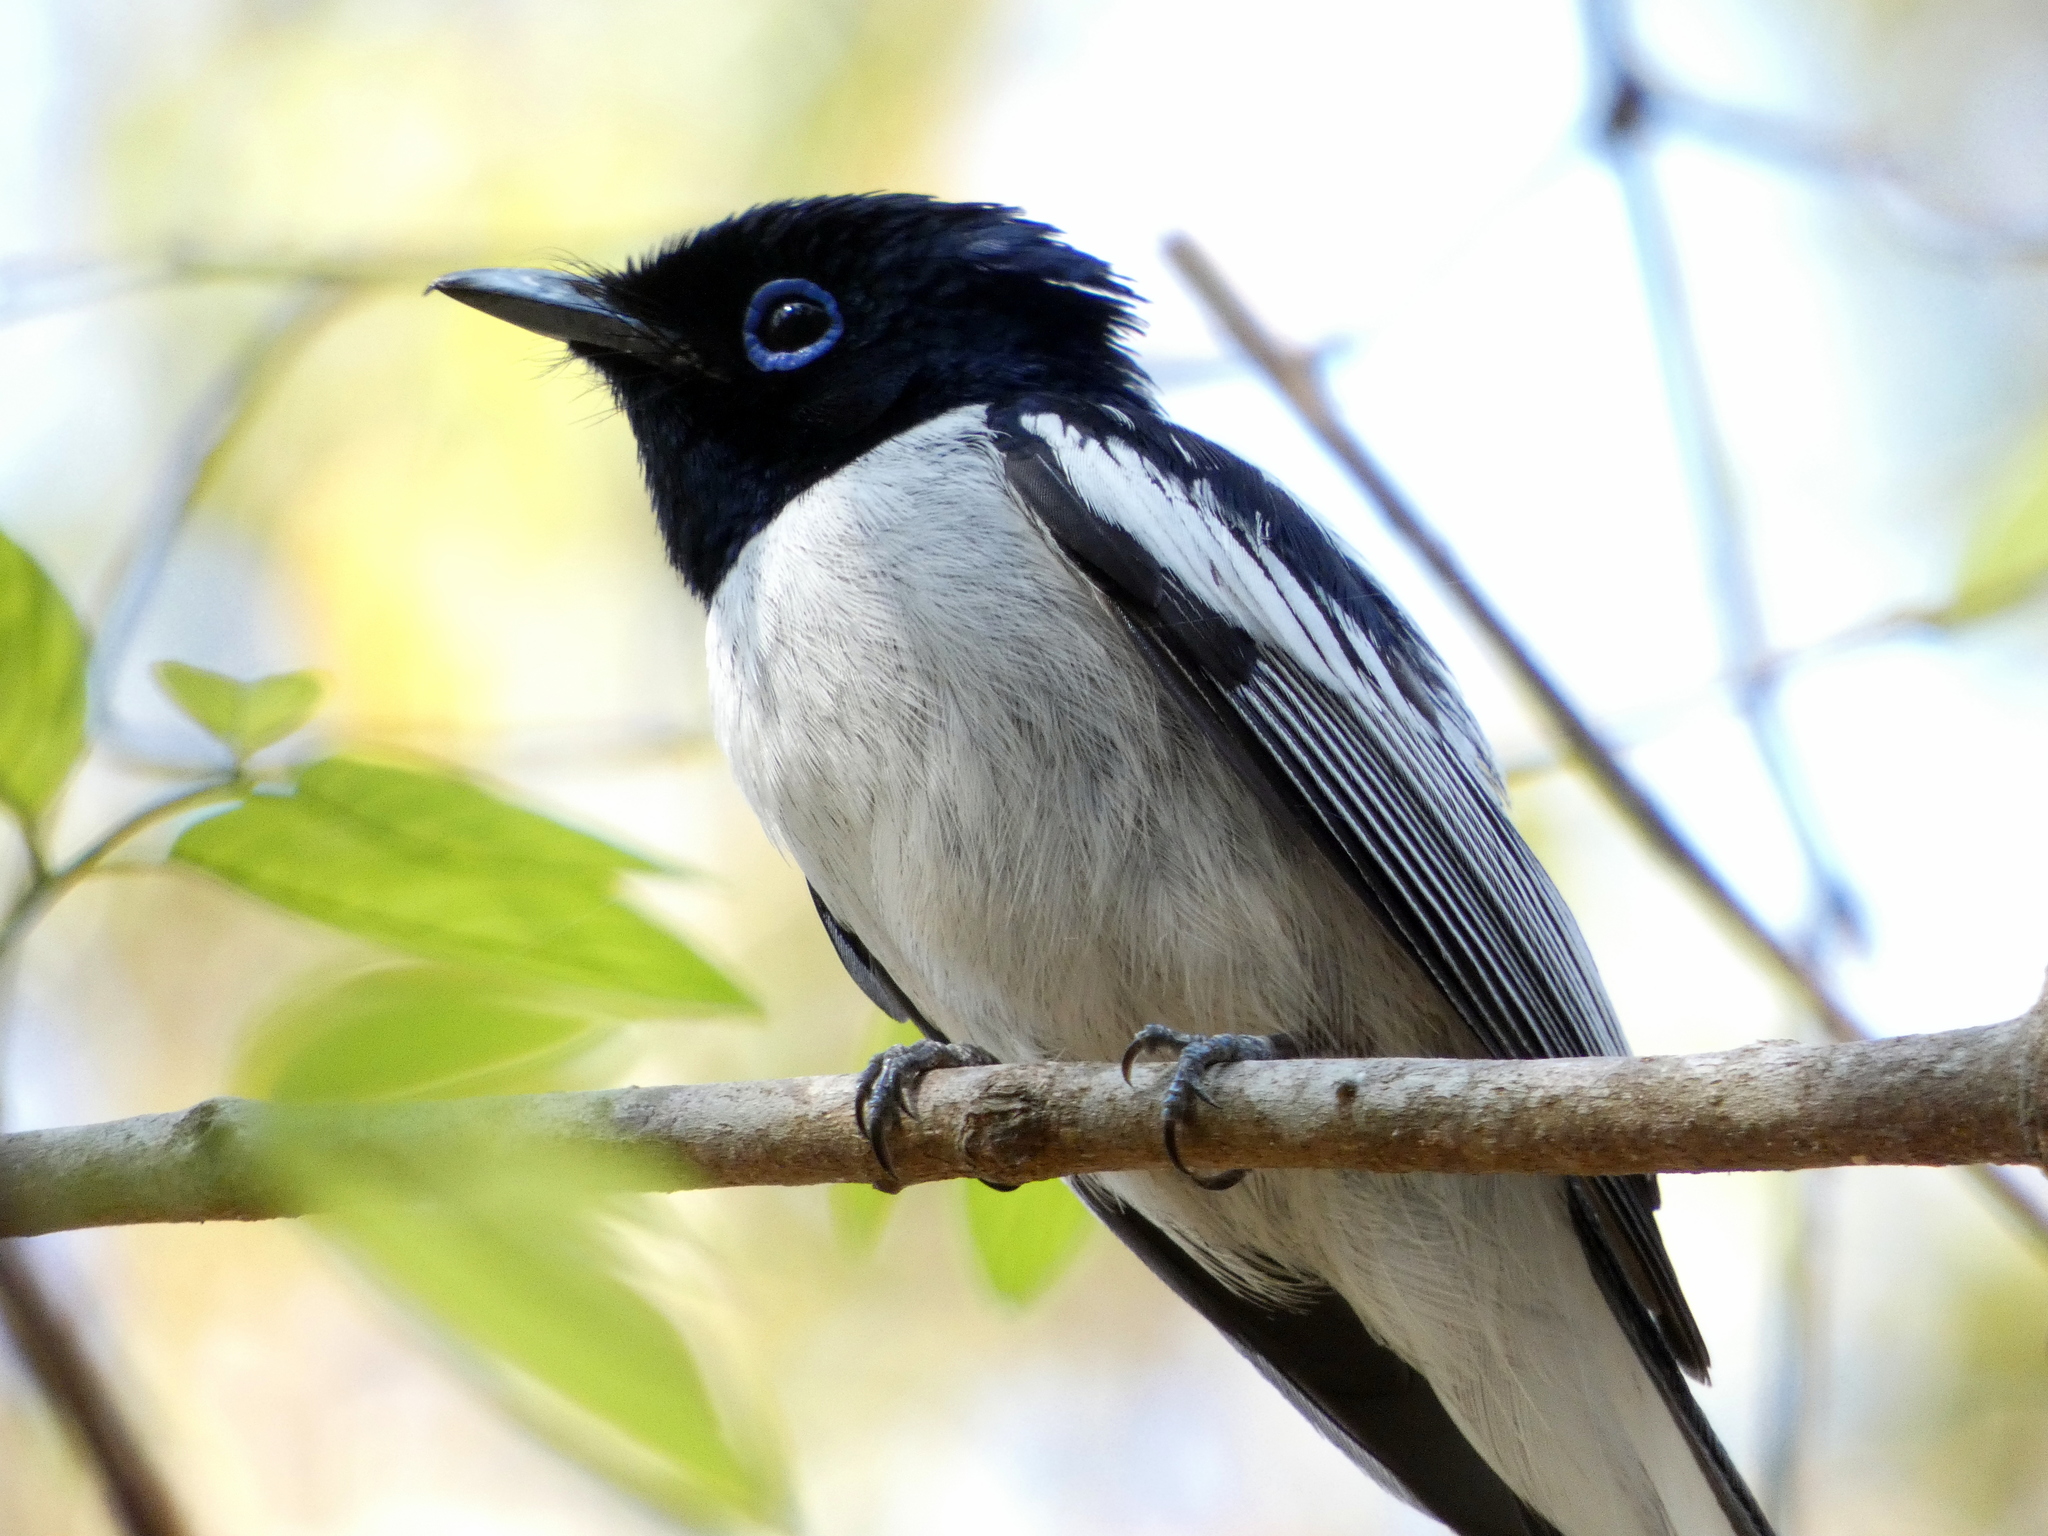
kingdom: Animalia
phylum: Chordata
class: Aves
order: Passeriformes
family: Monarchidae
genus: Terpsiphone
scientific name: Terpsiphone mutata
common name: Malagasy paradise flycatcher
